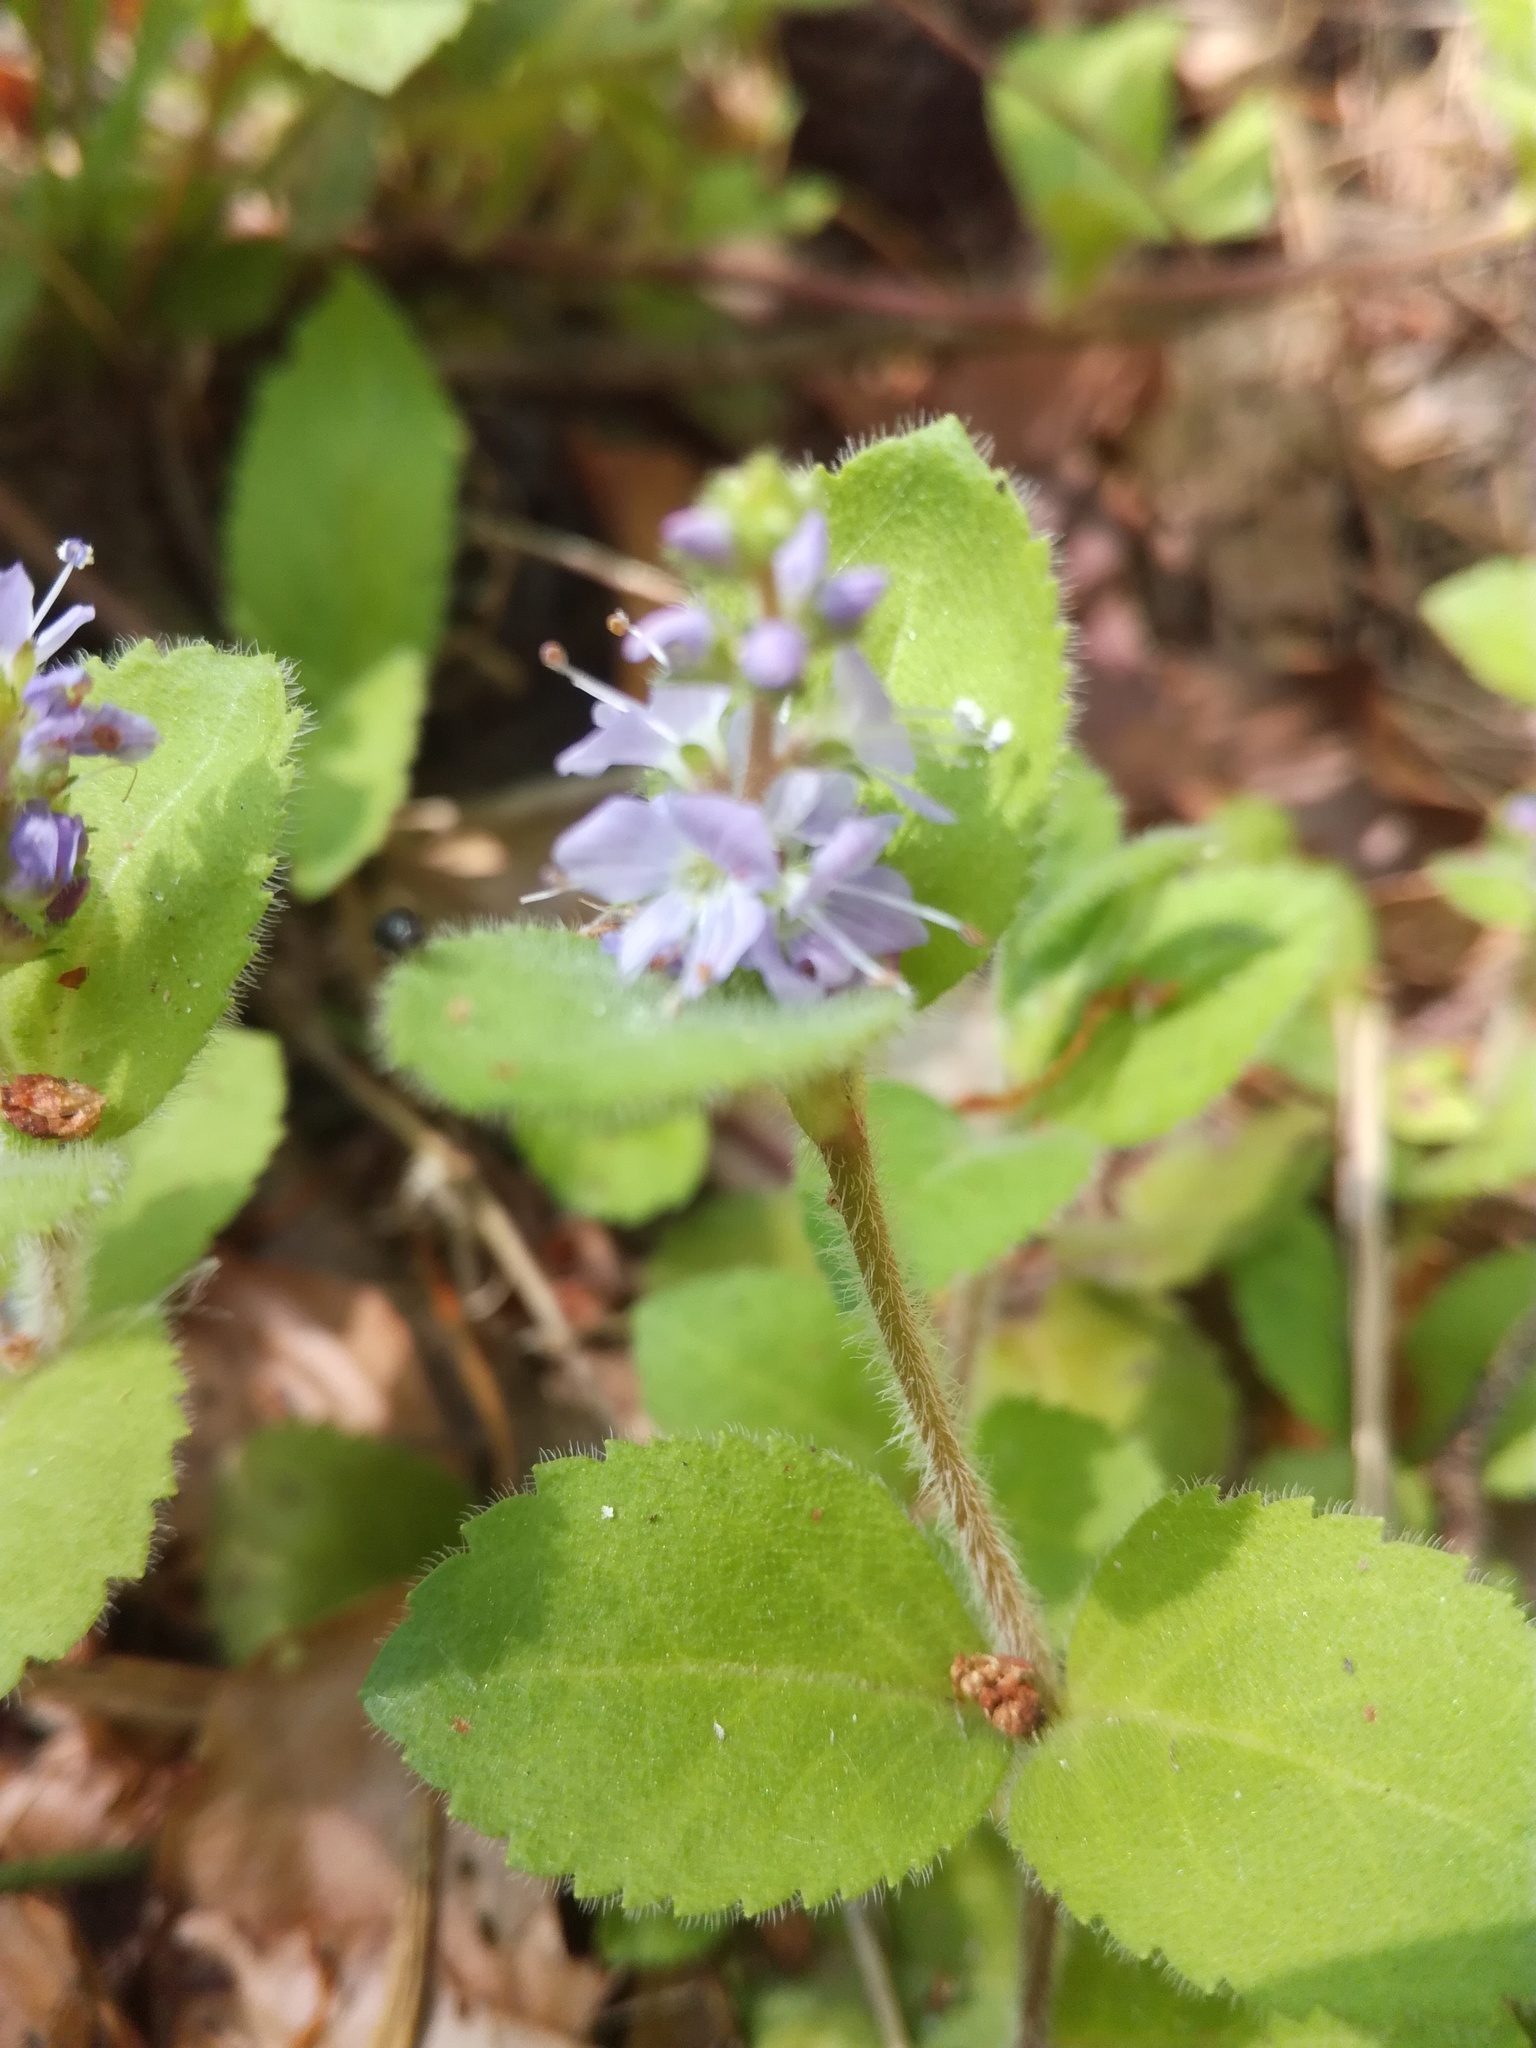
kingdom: Plantae
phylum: Tracheophyta
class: Magnoliopsida
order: Lamiales
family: Plantaginaceae
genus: Veronica
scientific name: Veronica officinalis
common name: Common speedwell
